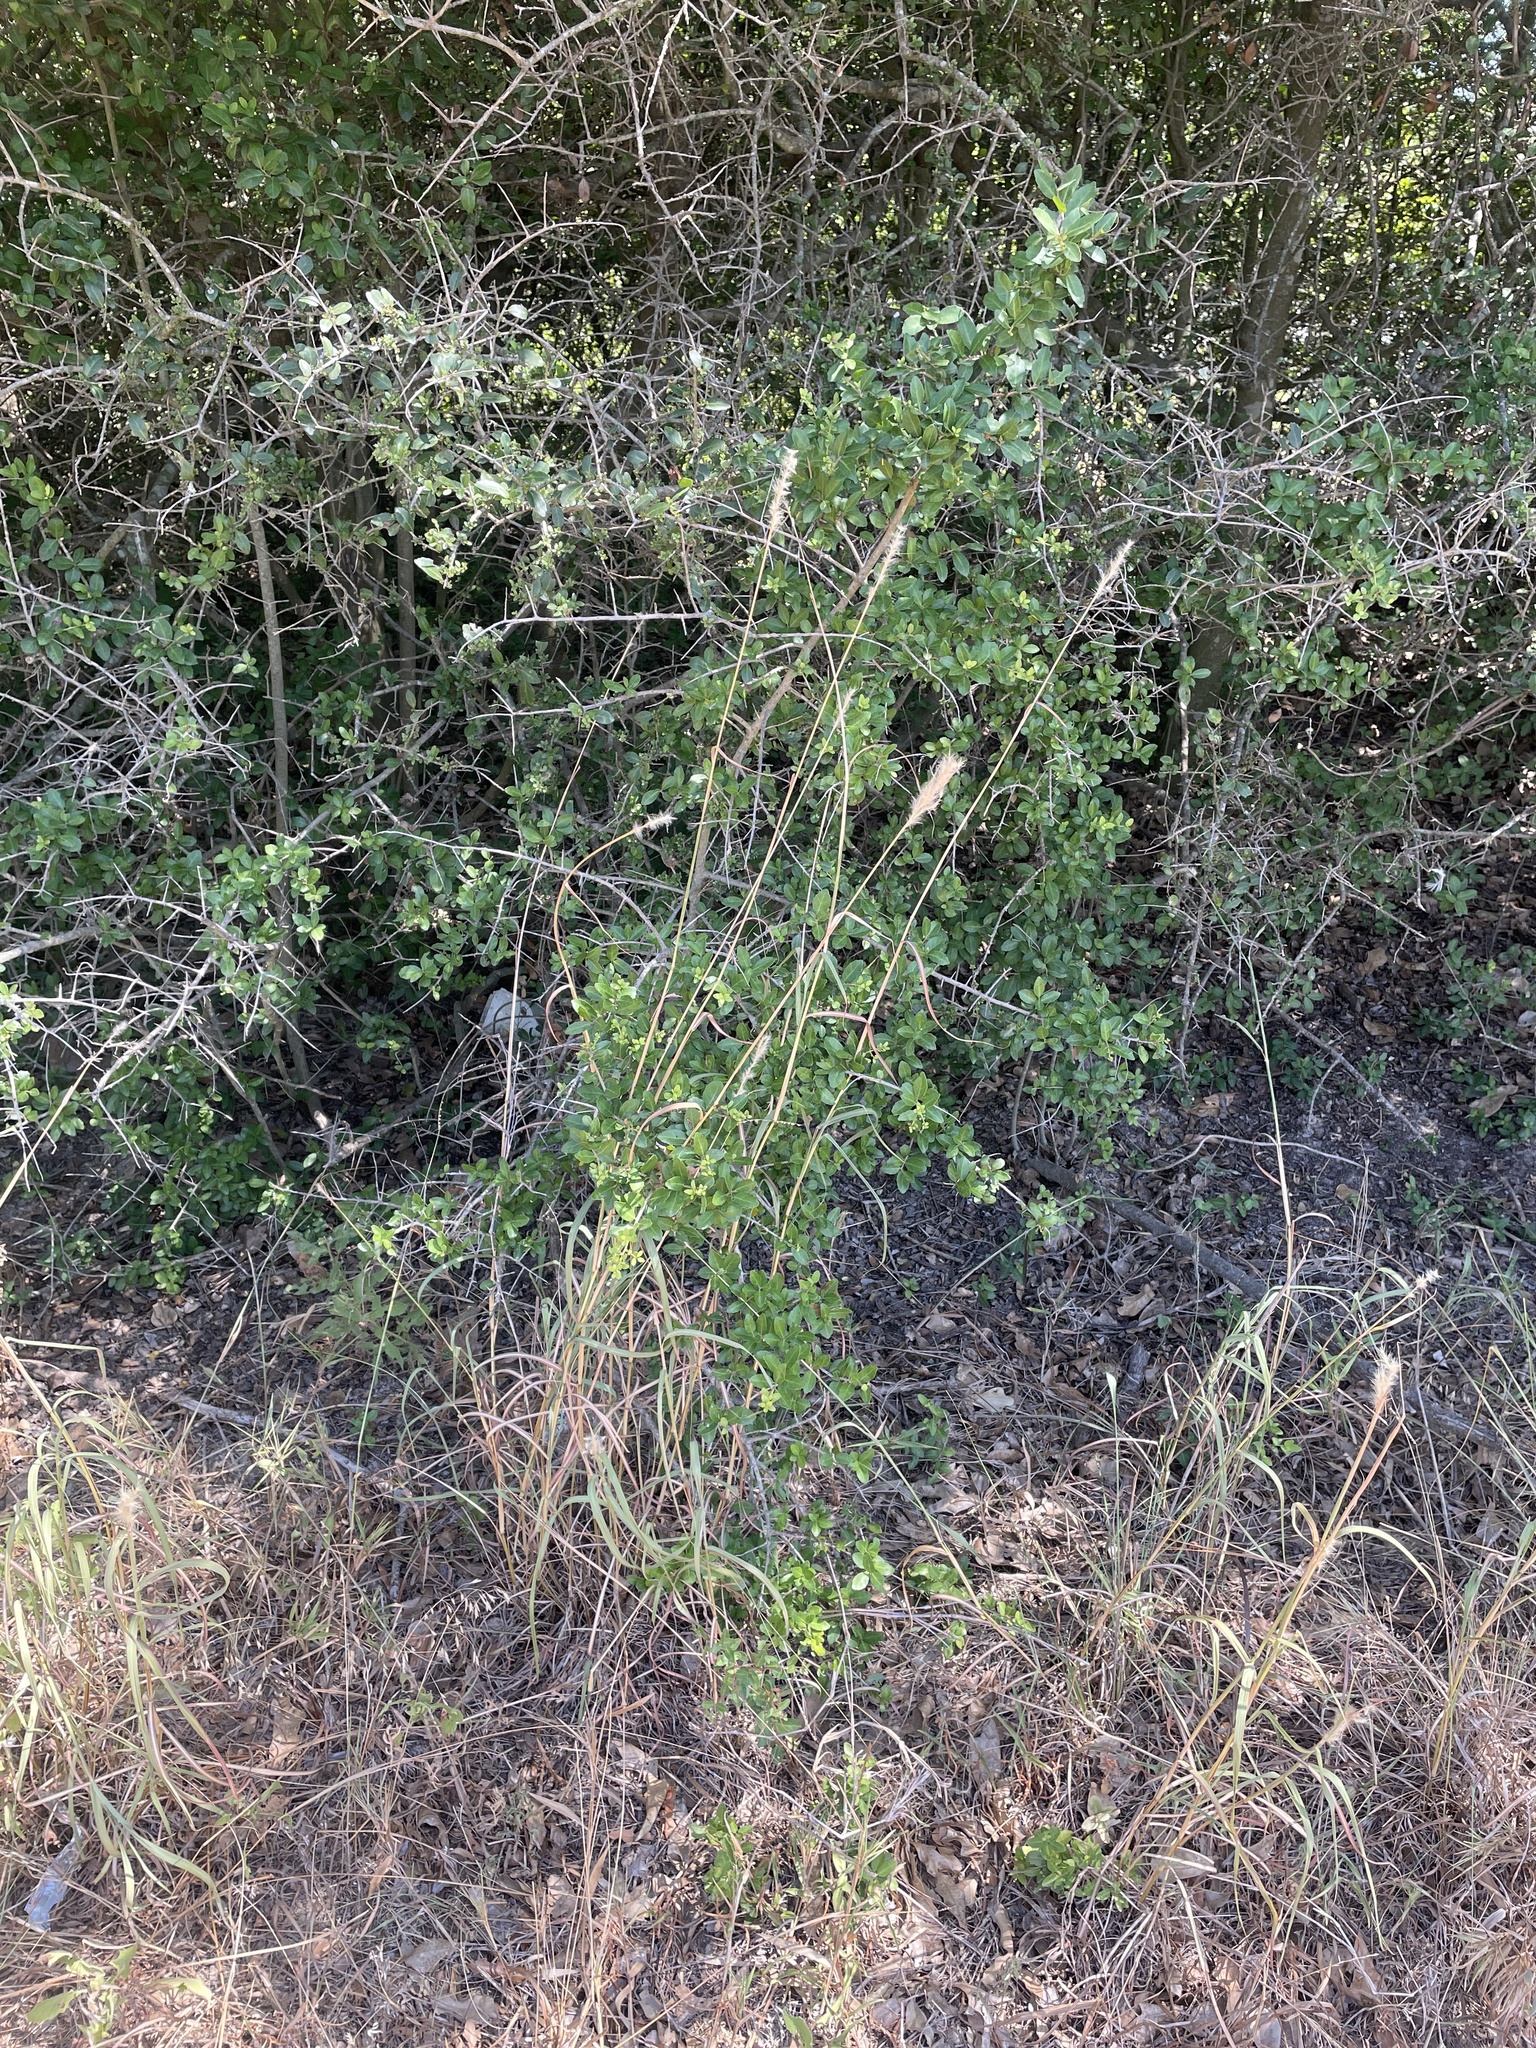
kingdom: Plantae
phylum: Tracheophyta
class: Liliopsida
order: Poales
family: Poaceae
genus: Bothriochloa
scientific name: Bothriochloa torreyana
